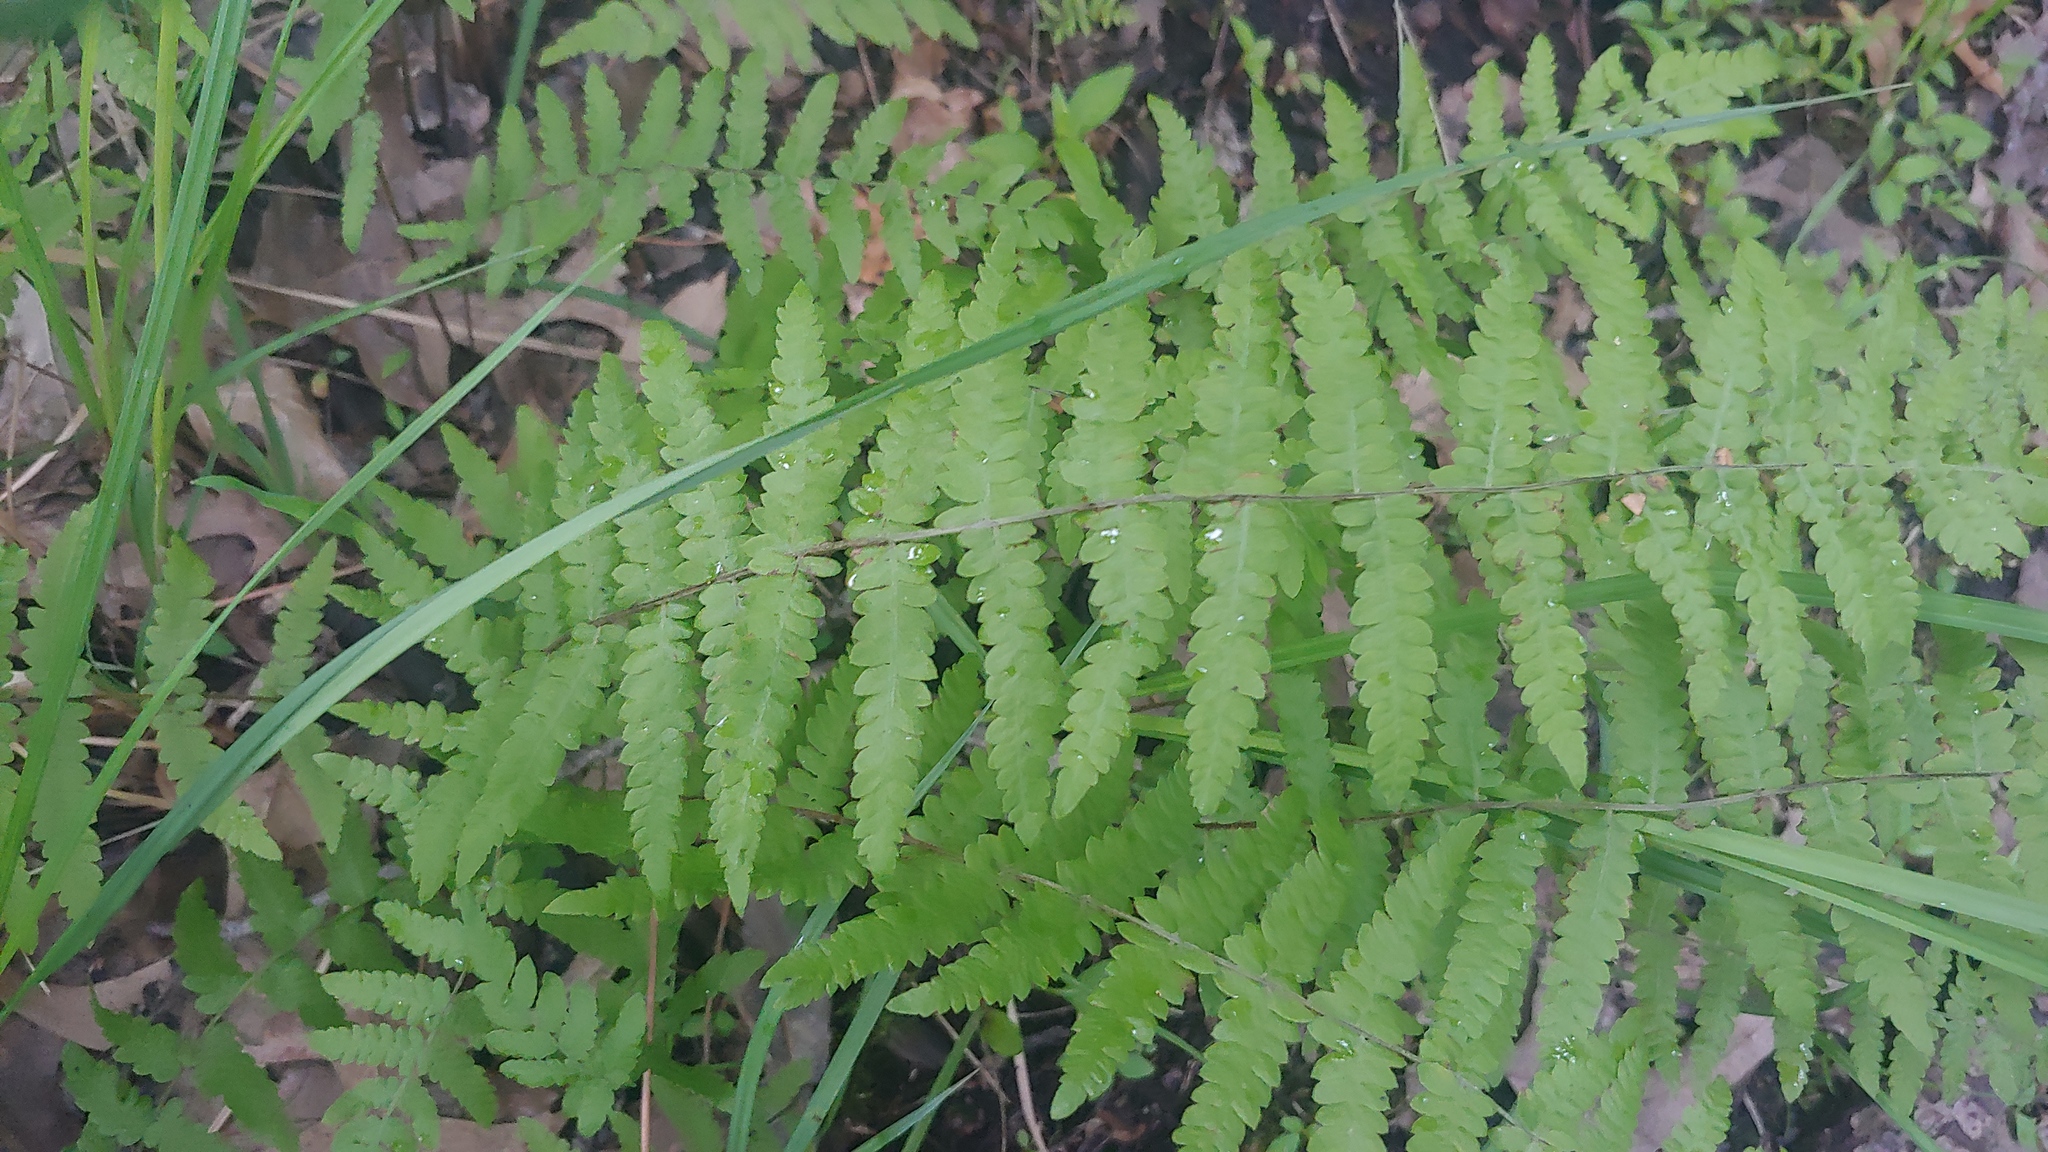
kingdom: Plantae
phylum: Tracheophyta
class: Polypodiopsida
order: Polypodiales
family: Thelypteridaceae
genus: Thelypteris
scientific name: Thelypteris palustris
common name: Marsh fern
